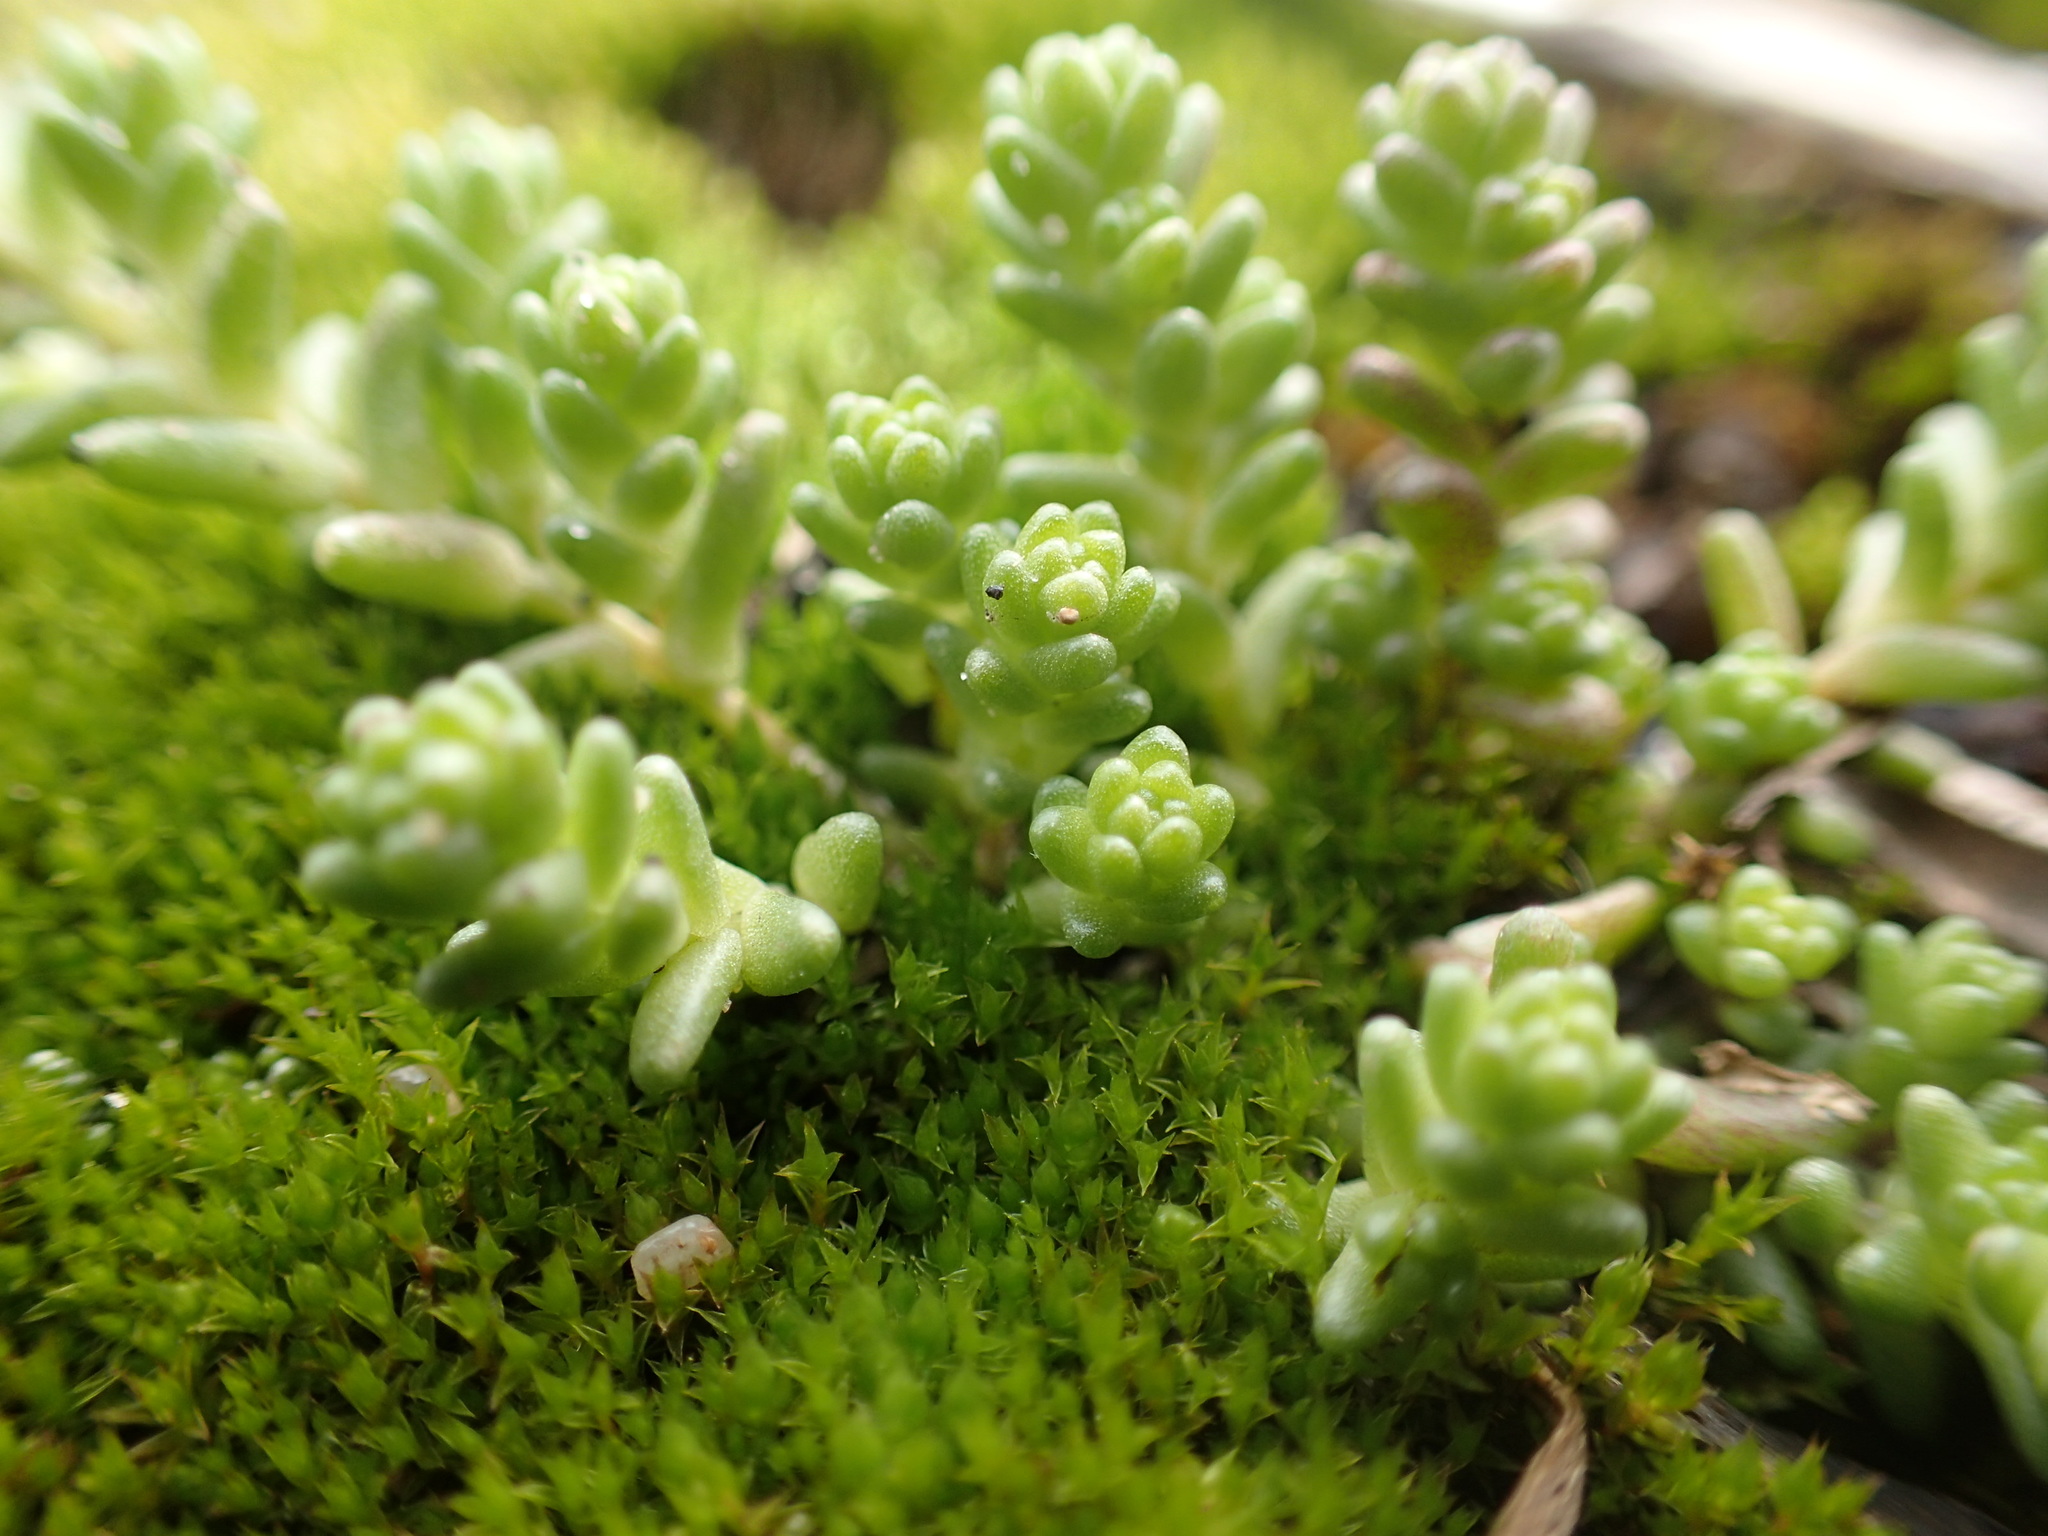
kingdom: Plantae
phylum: Tracheophyta
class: Magnoliopsida
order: Saxifragales
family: Crassulaceae
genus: Sedum
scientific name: Sedum acre
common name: Biting stonecrop
